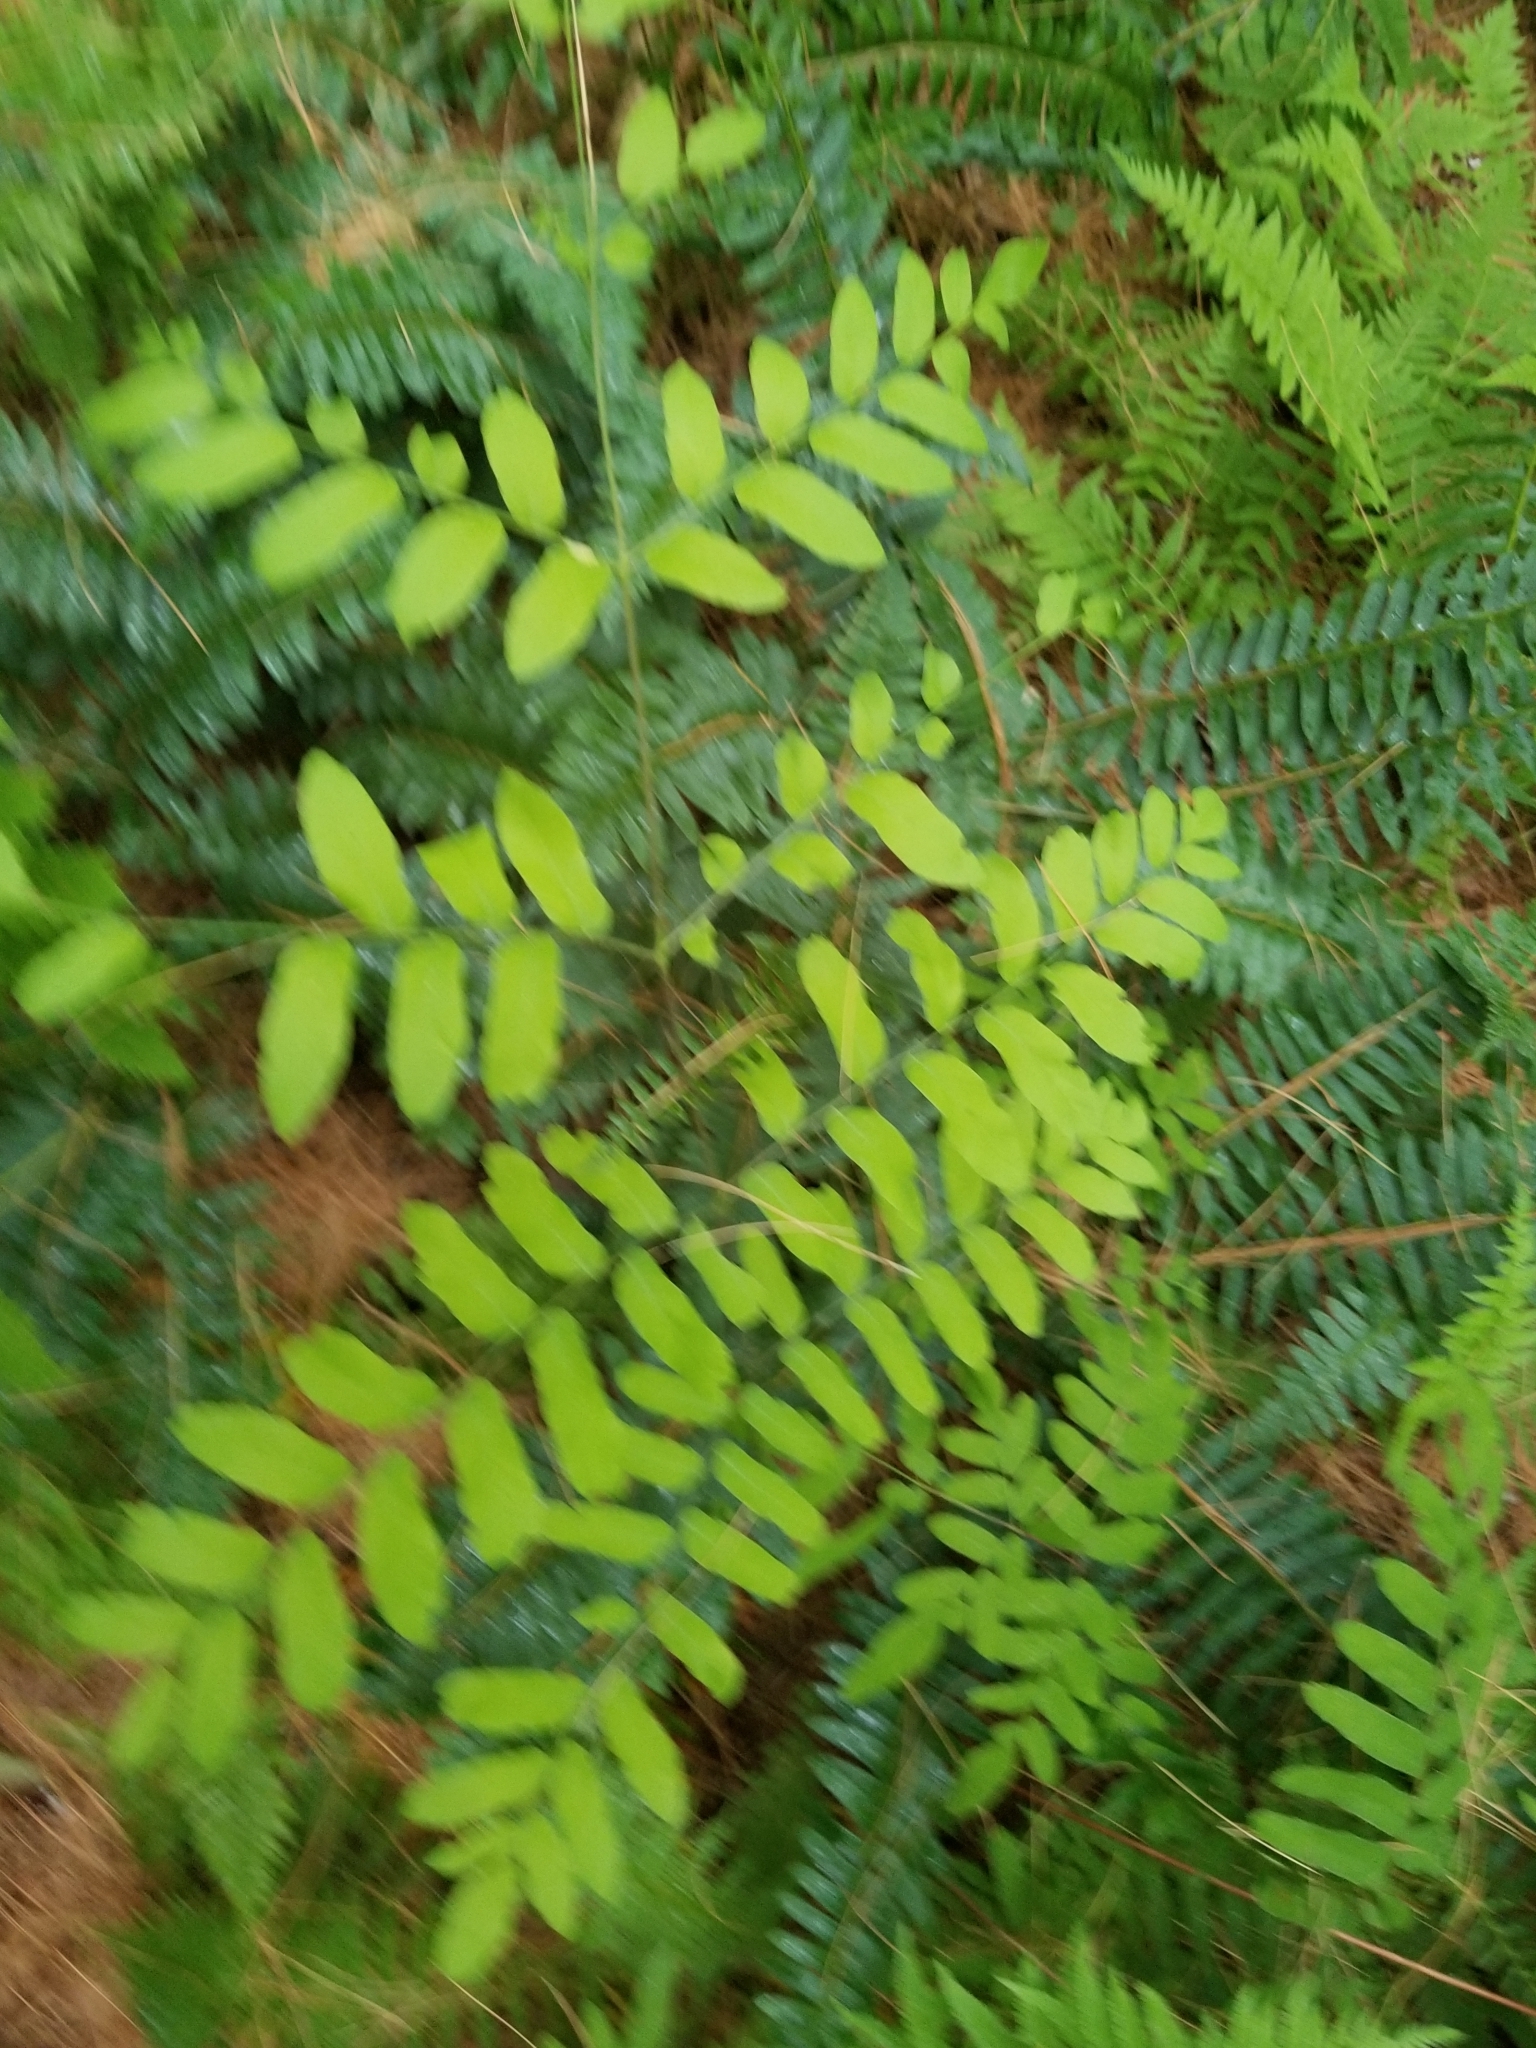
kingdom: Plantae
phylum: Tracheophyta
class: Polypodiopsida
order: Osmundales
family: Osmundaceae
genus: Osmunda
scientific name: Osmunda spectabilis
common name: American royal fern
